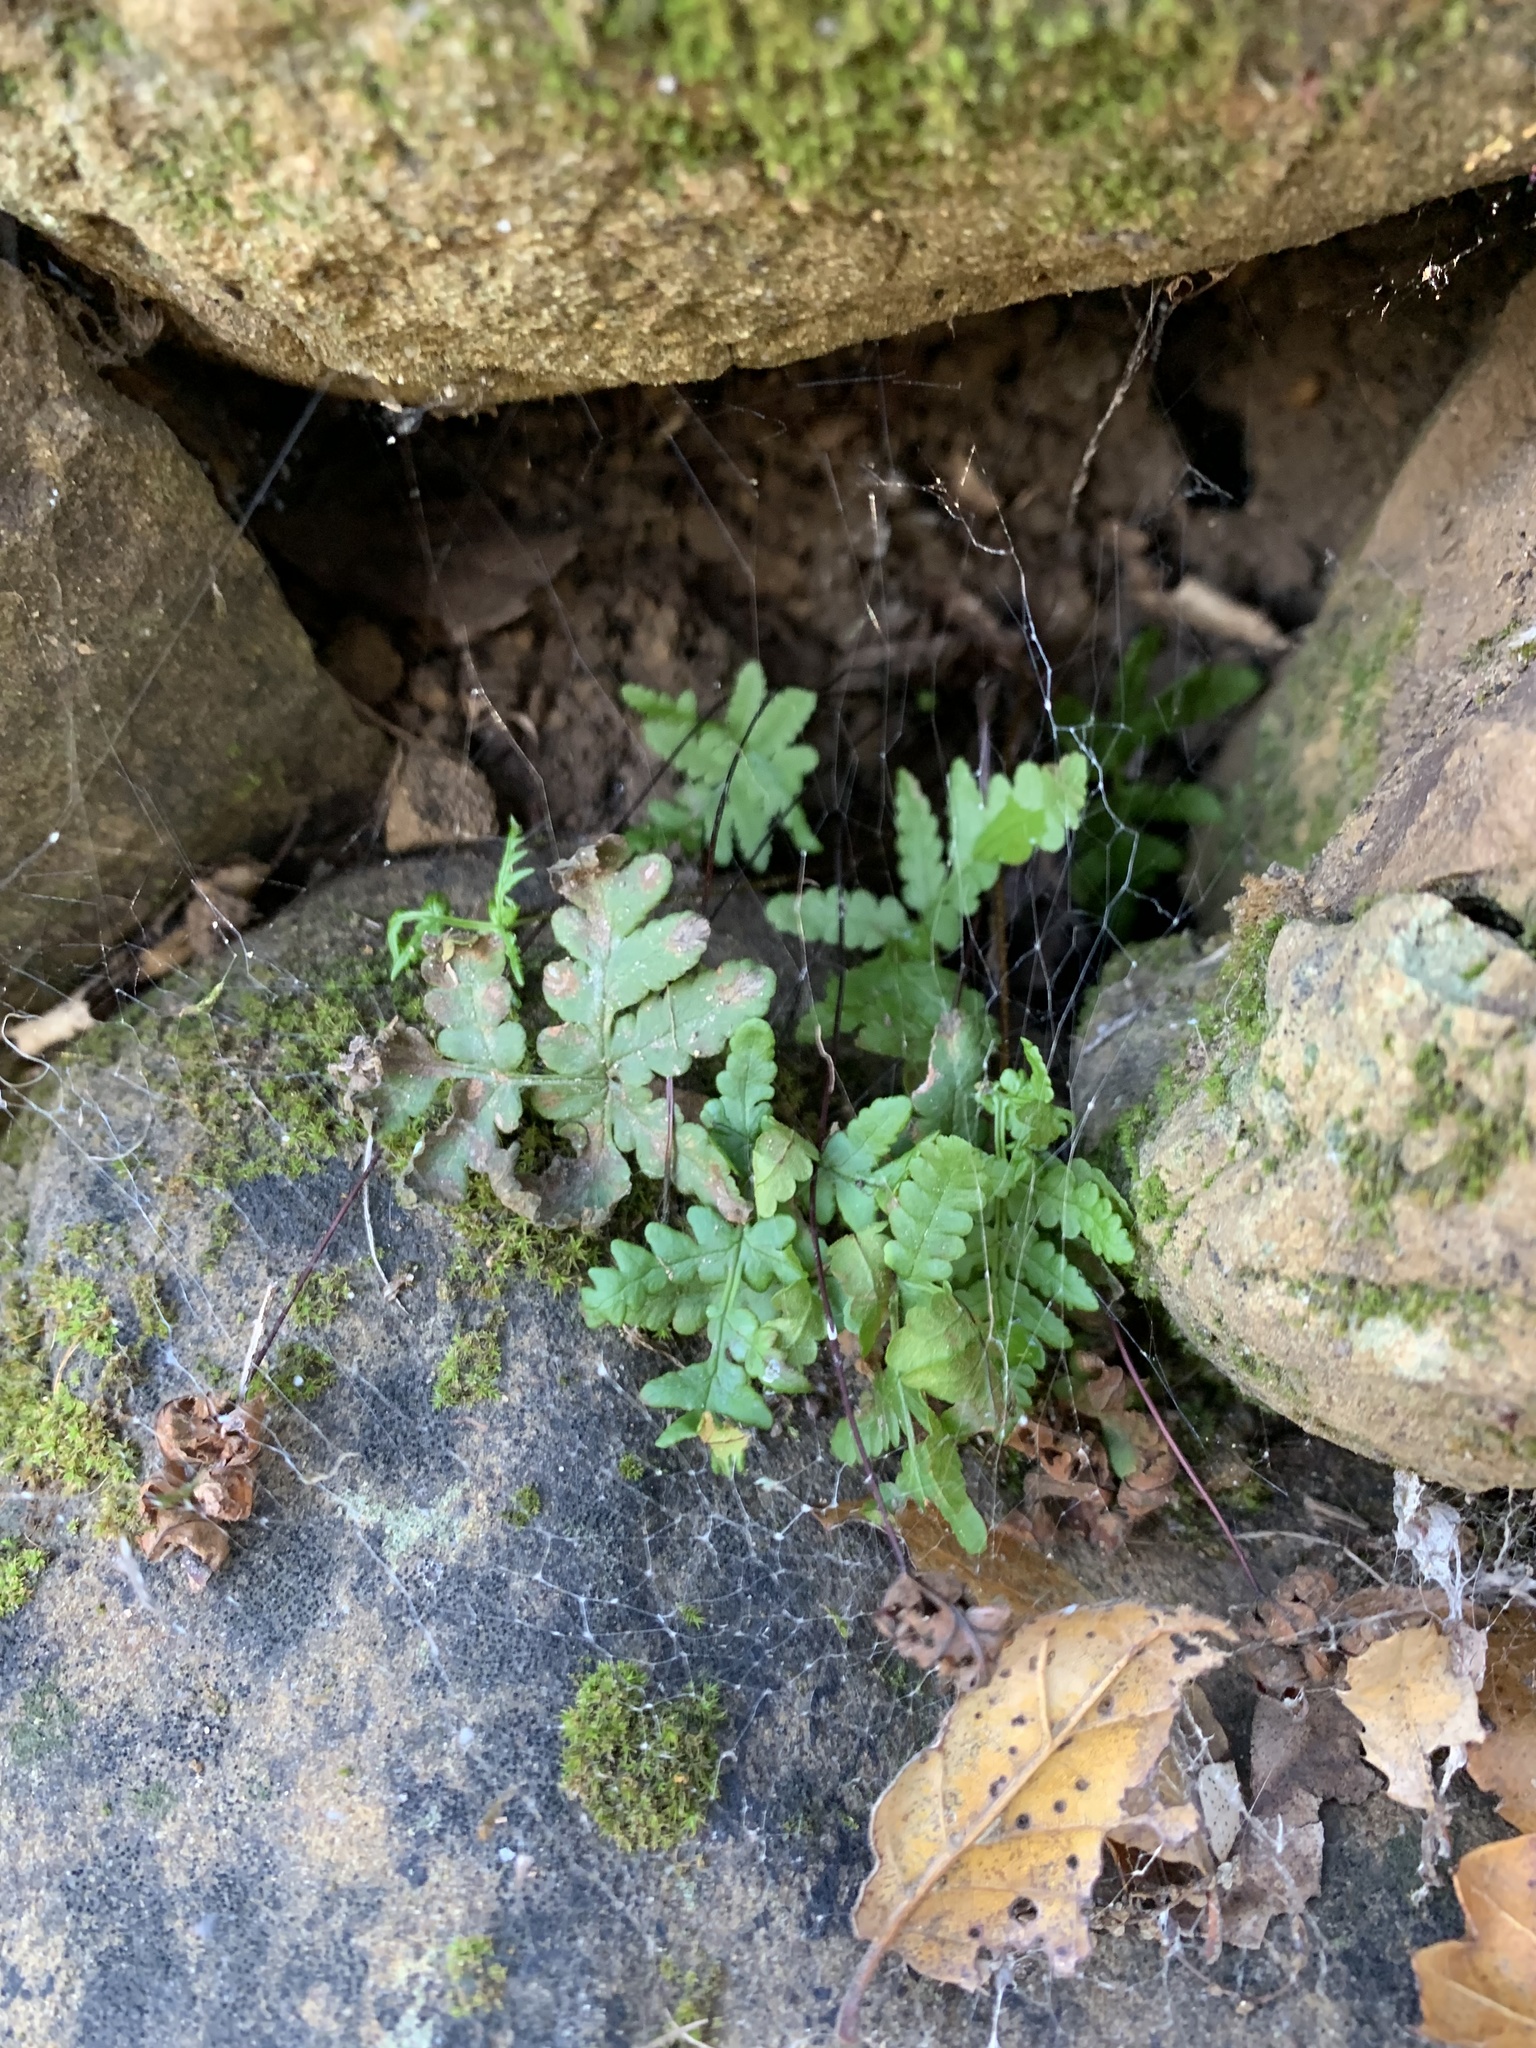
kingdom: Plantae
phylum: Tracheophyta
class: Polypodiopsida
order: Polypodiales
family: Pteridaceae
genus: Pentagramma
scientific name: Pentagramma triangularis
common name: Gold fern
